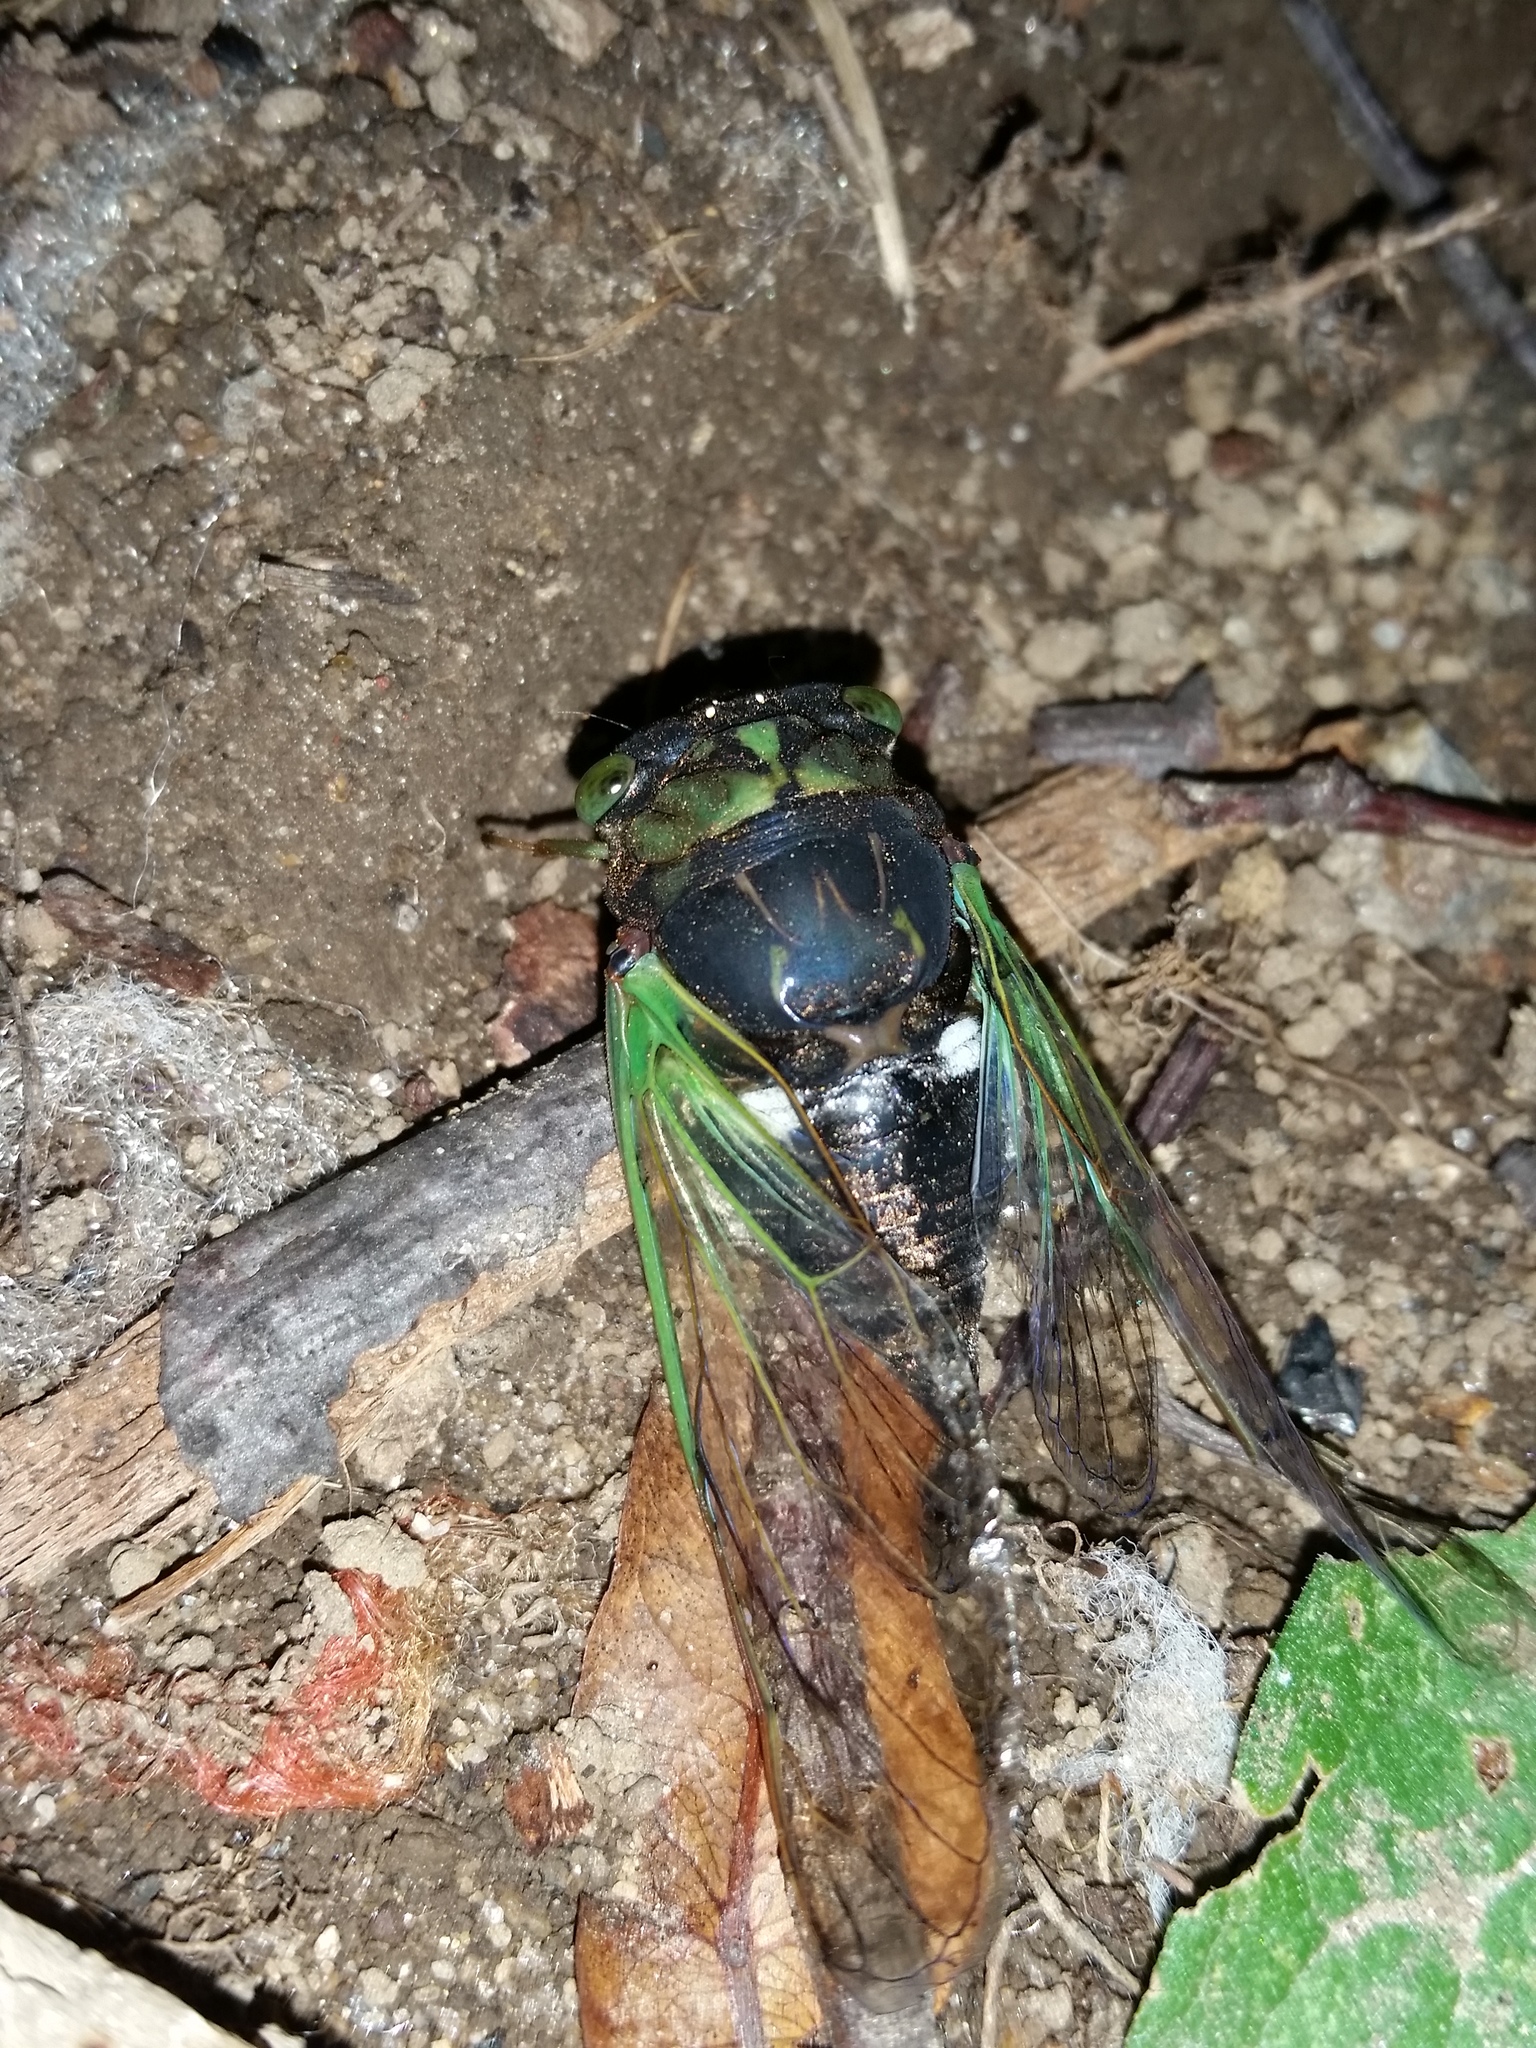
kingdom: Animalia
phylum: Arthropoda
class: Insecta
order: Hemiptera
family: Cicadidae
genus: Neotibicen
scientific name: Neotibicen tibicen
